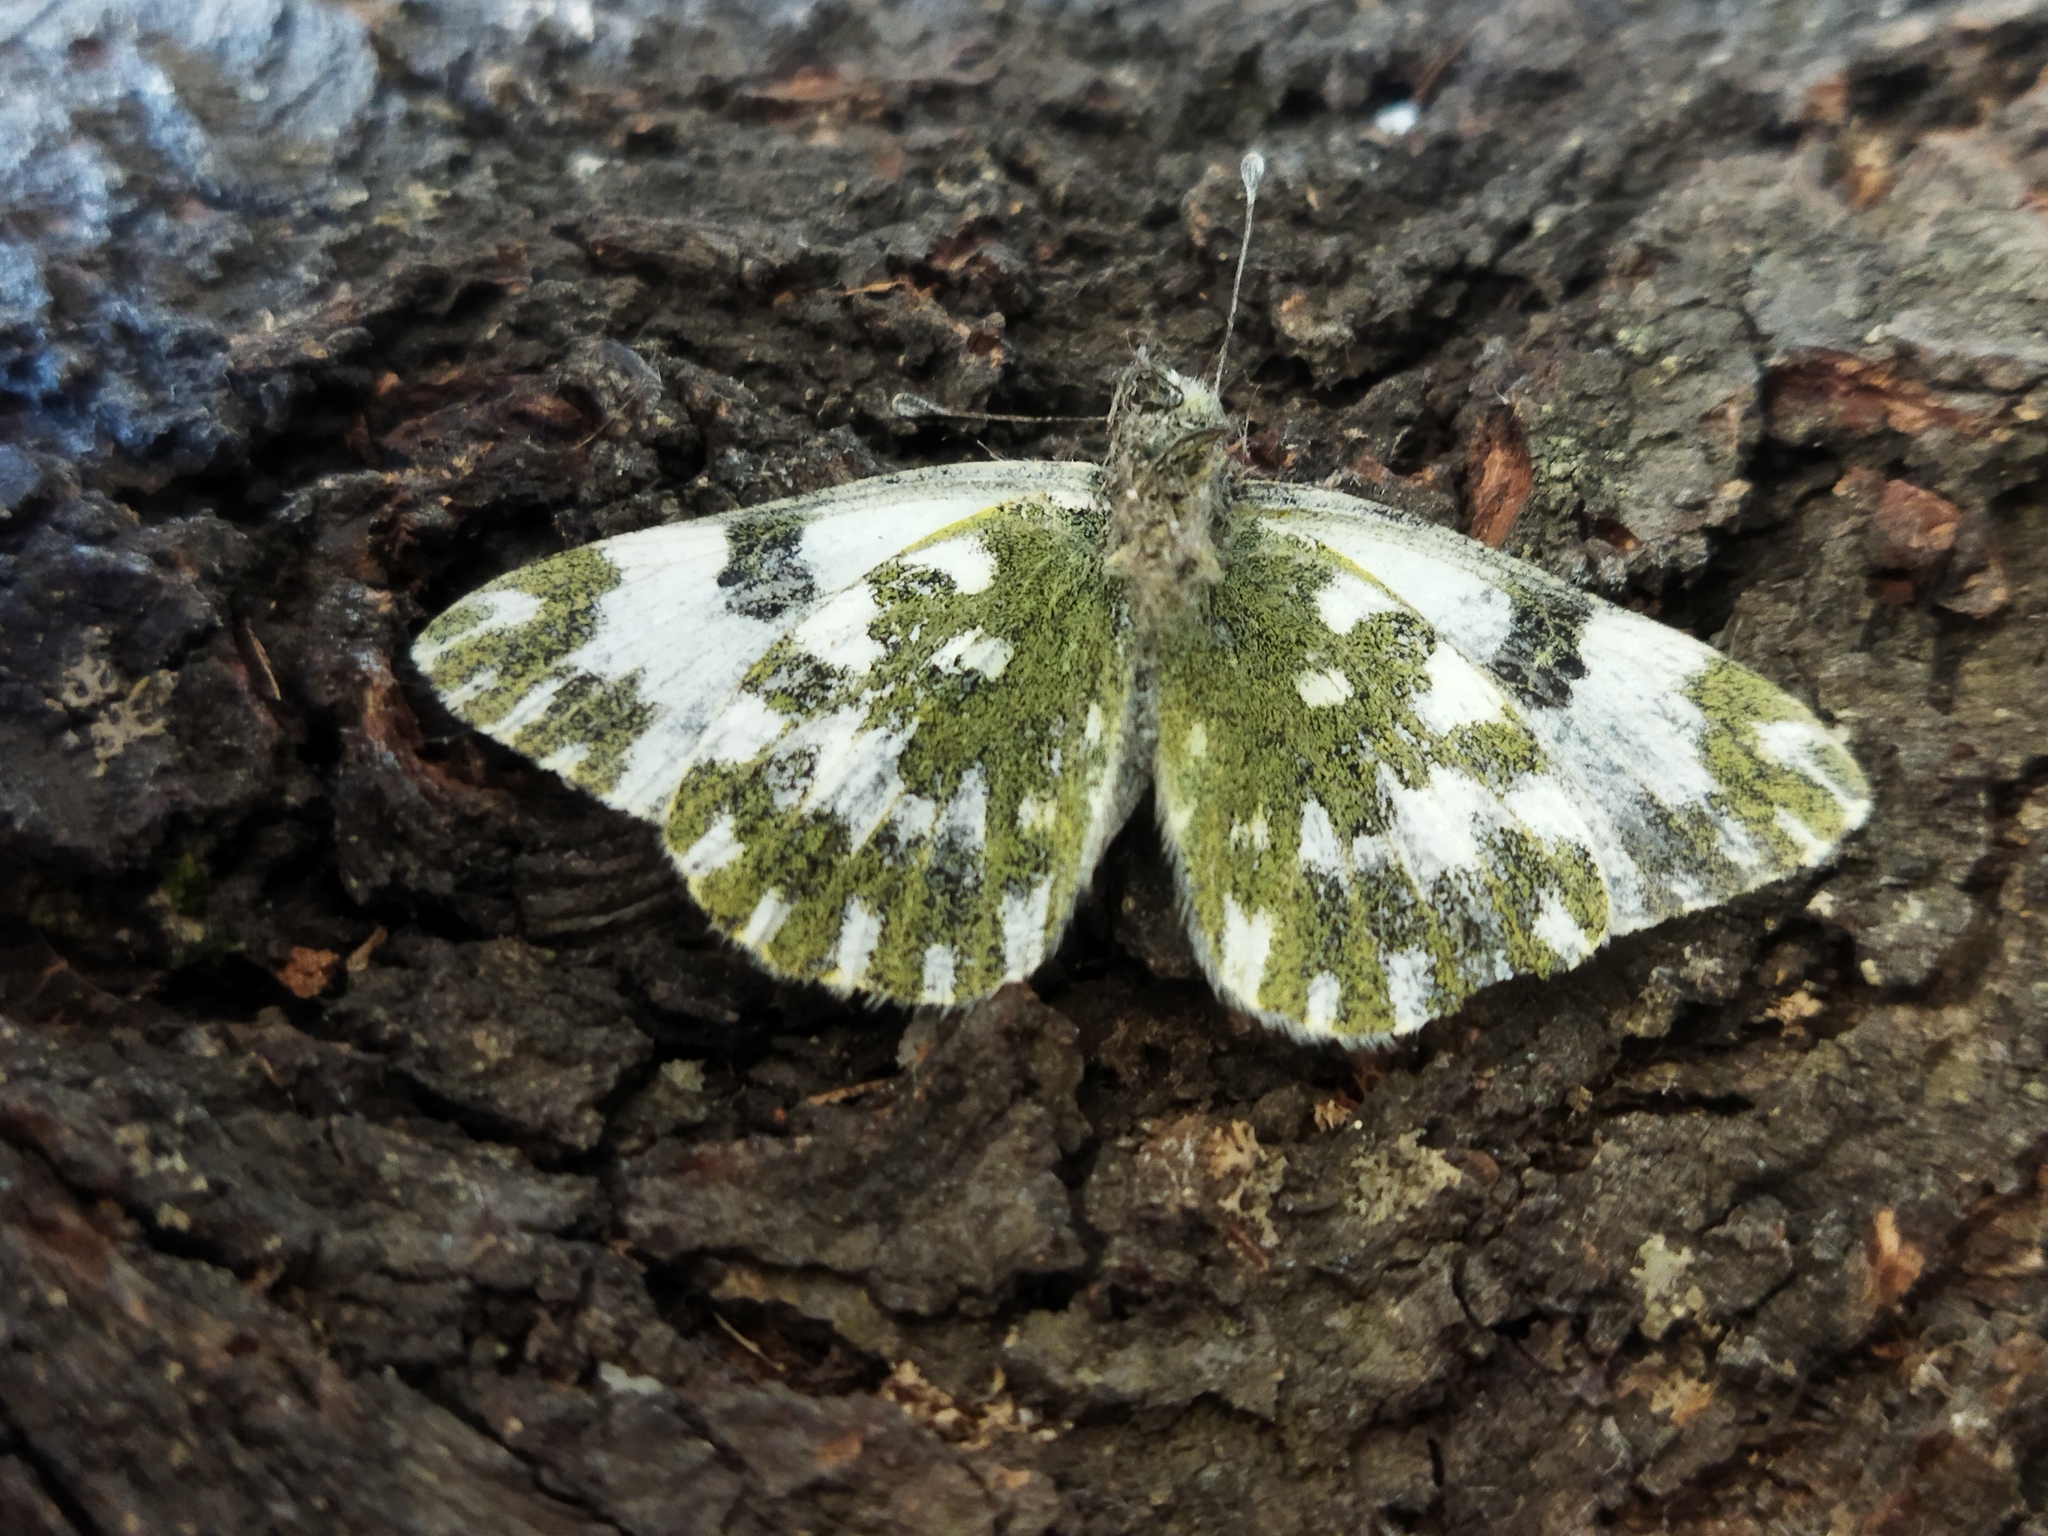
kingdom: Animalia
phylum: Arthropoda
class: Insecta
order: Lepidoptera
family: Pieridae
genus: Pontia
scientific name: Pontia edusa
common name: Eastern bath white
